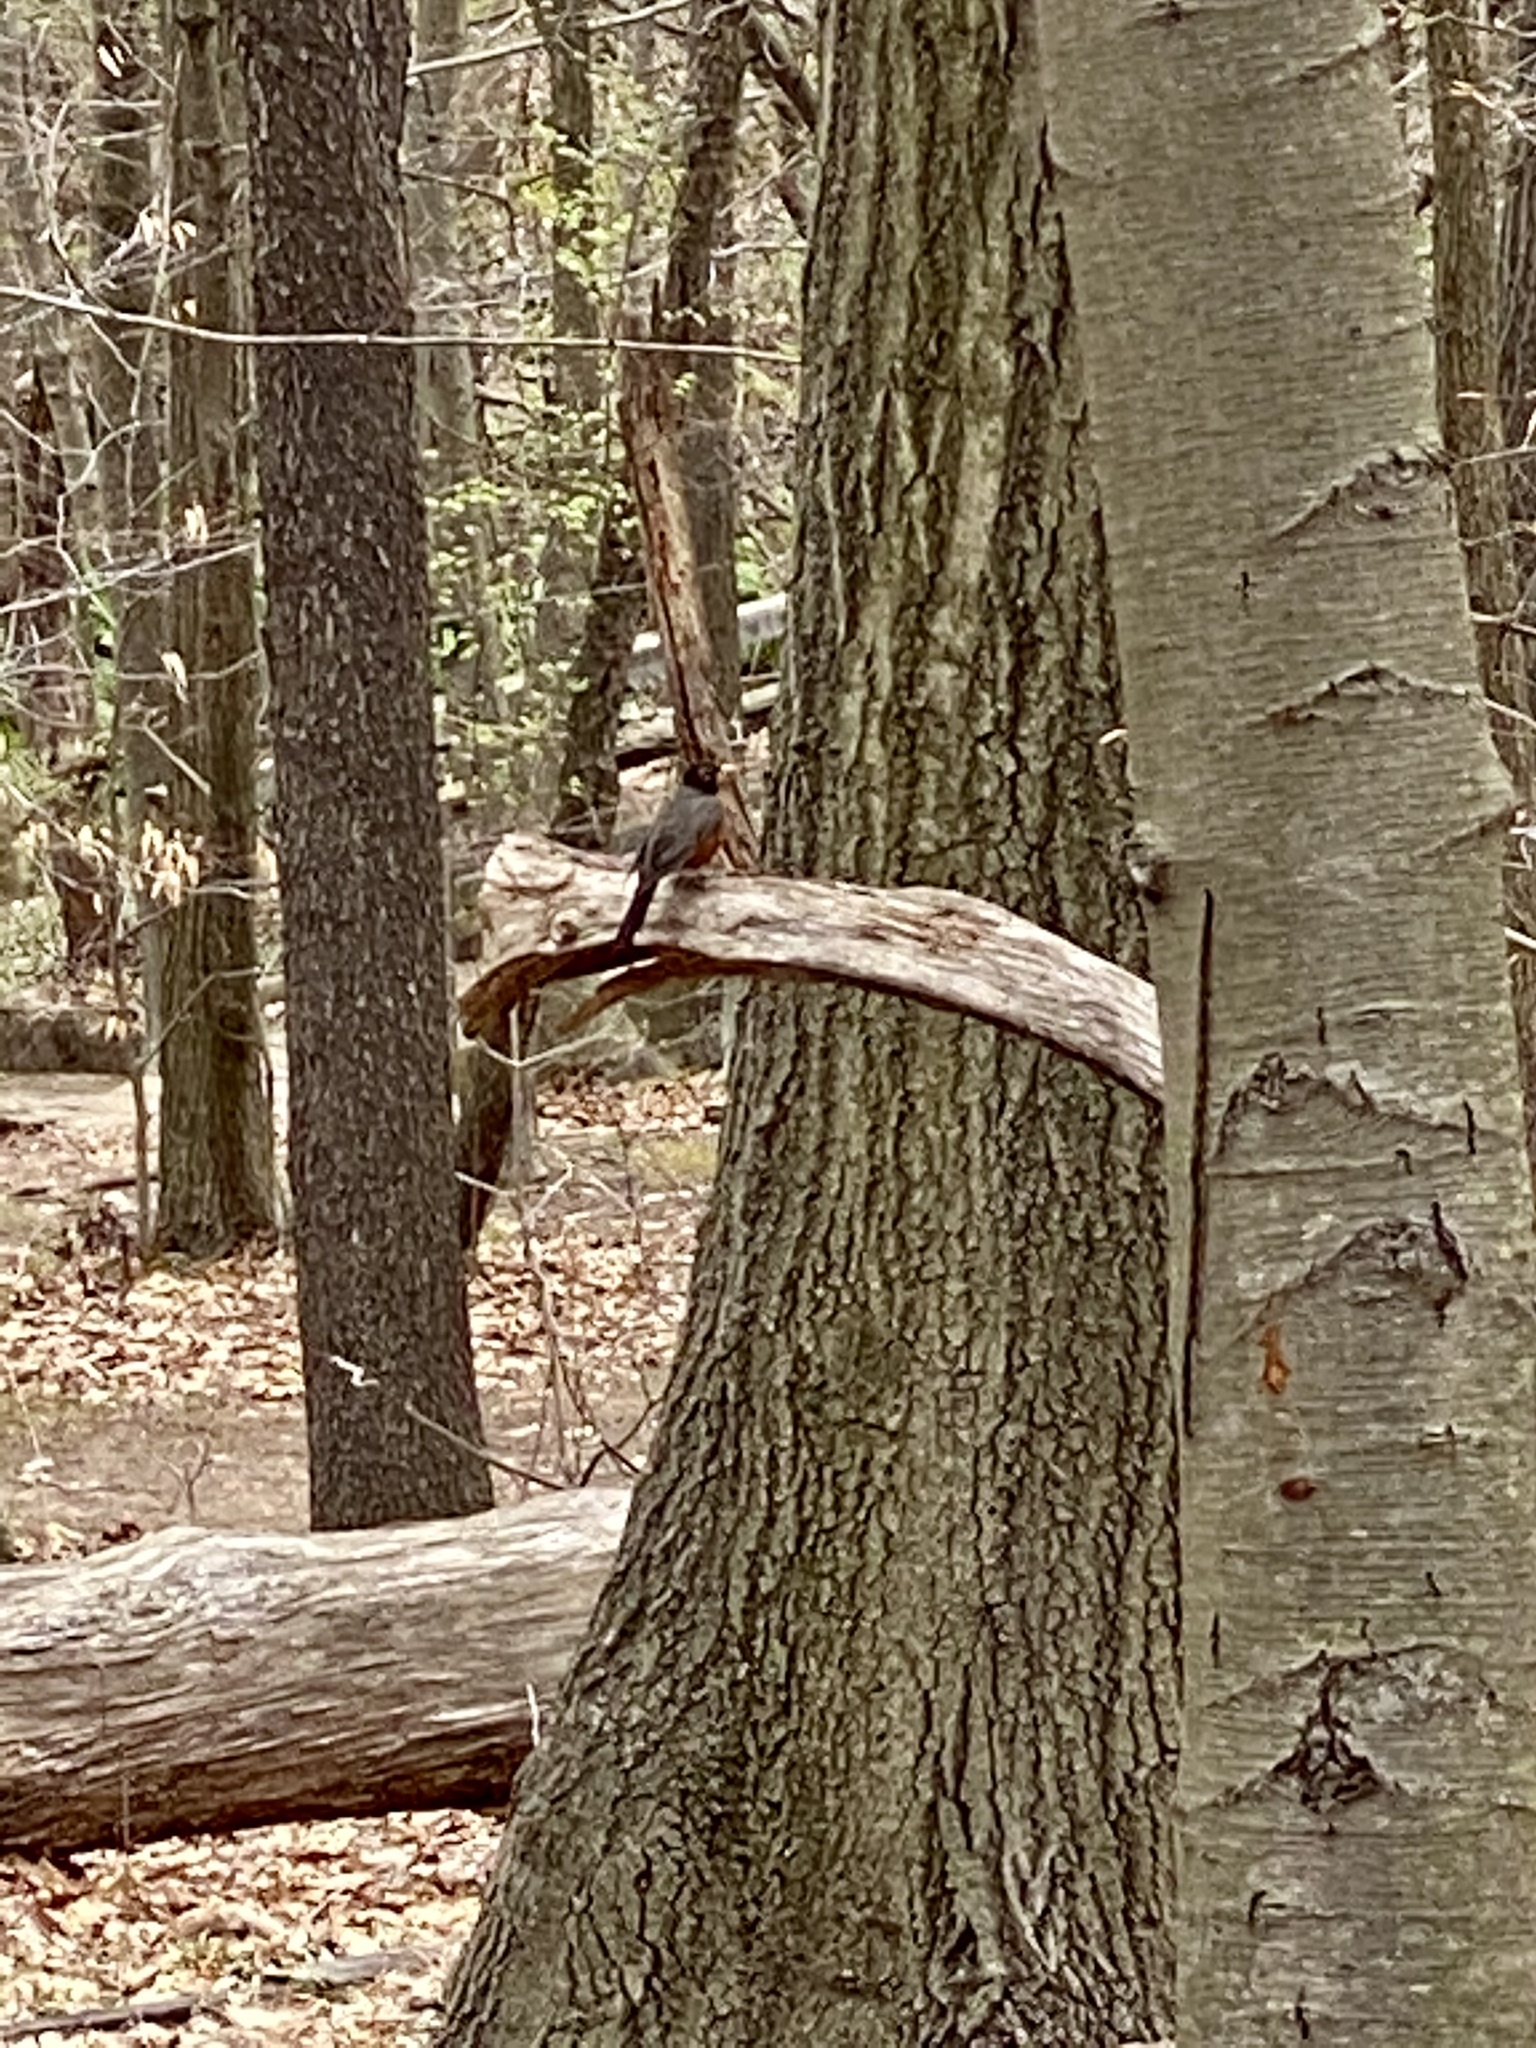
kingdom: Animalia
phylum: Chordata
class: Aves
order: Passeriformes
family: Turdidae
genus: Turdus
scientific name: Turdus migratorius
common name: American robin
